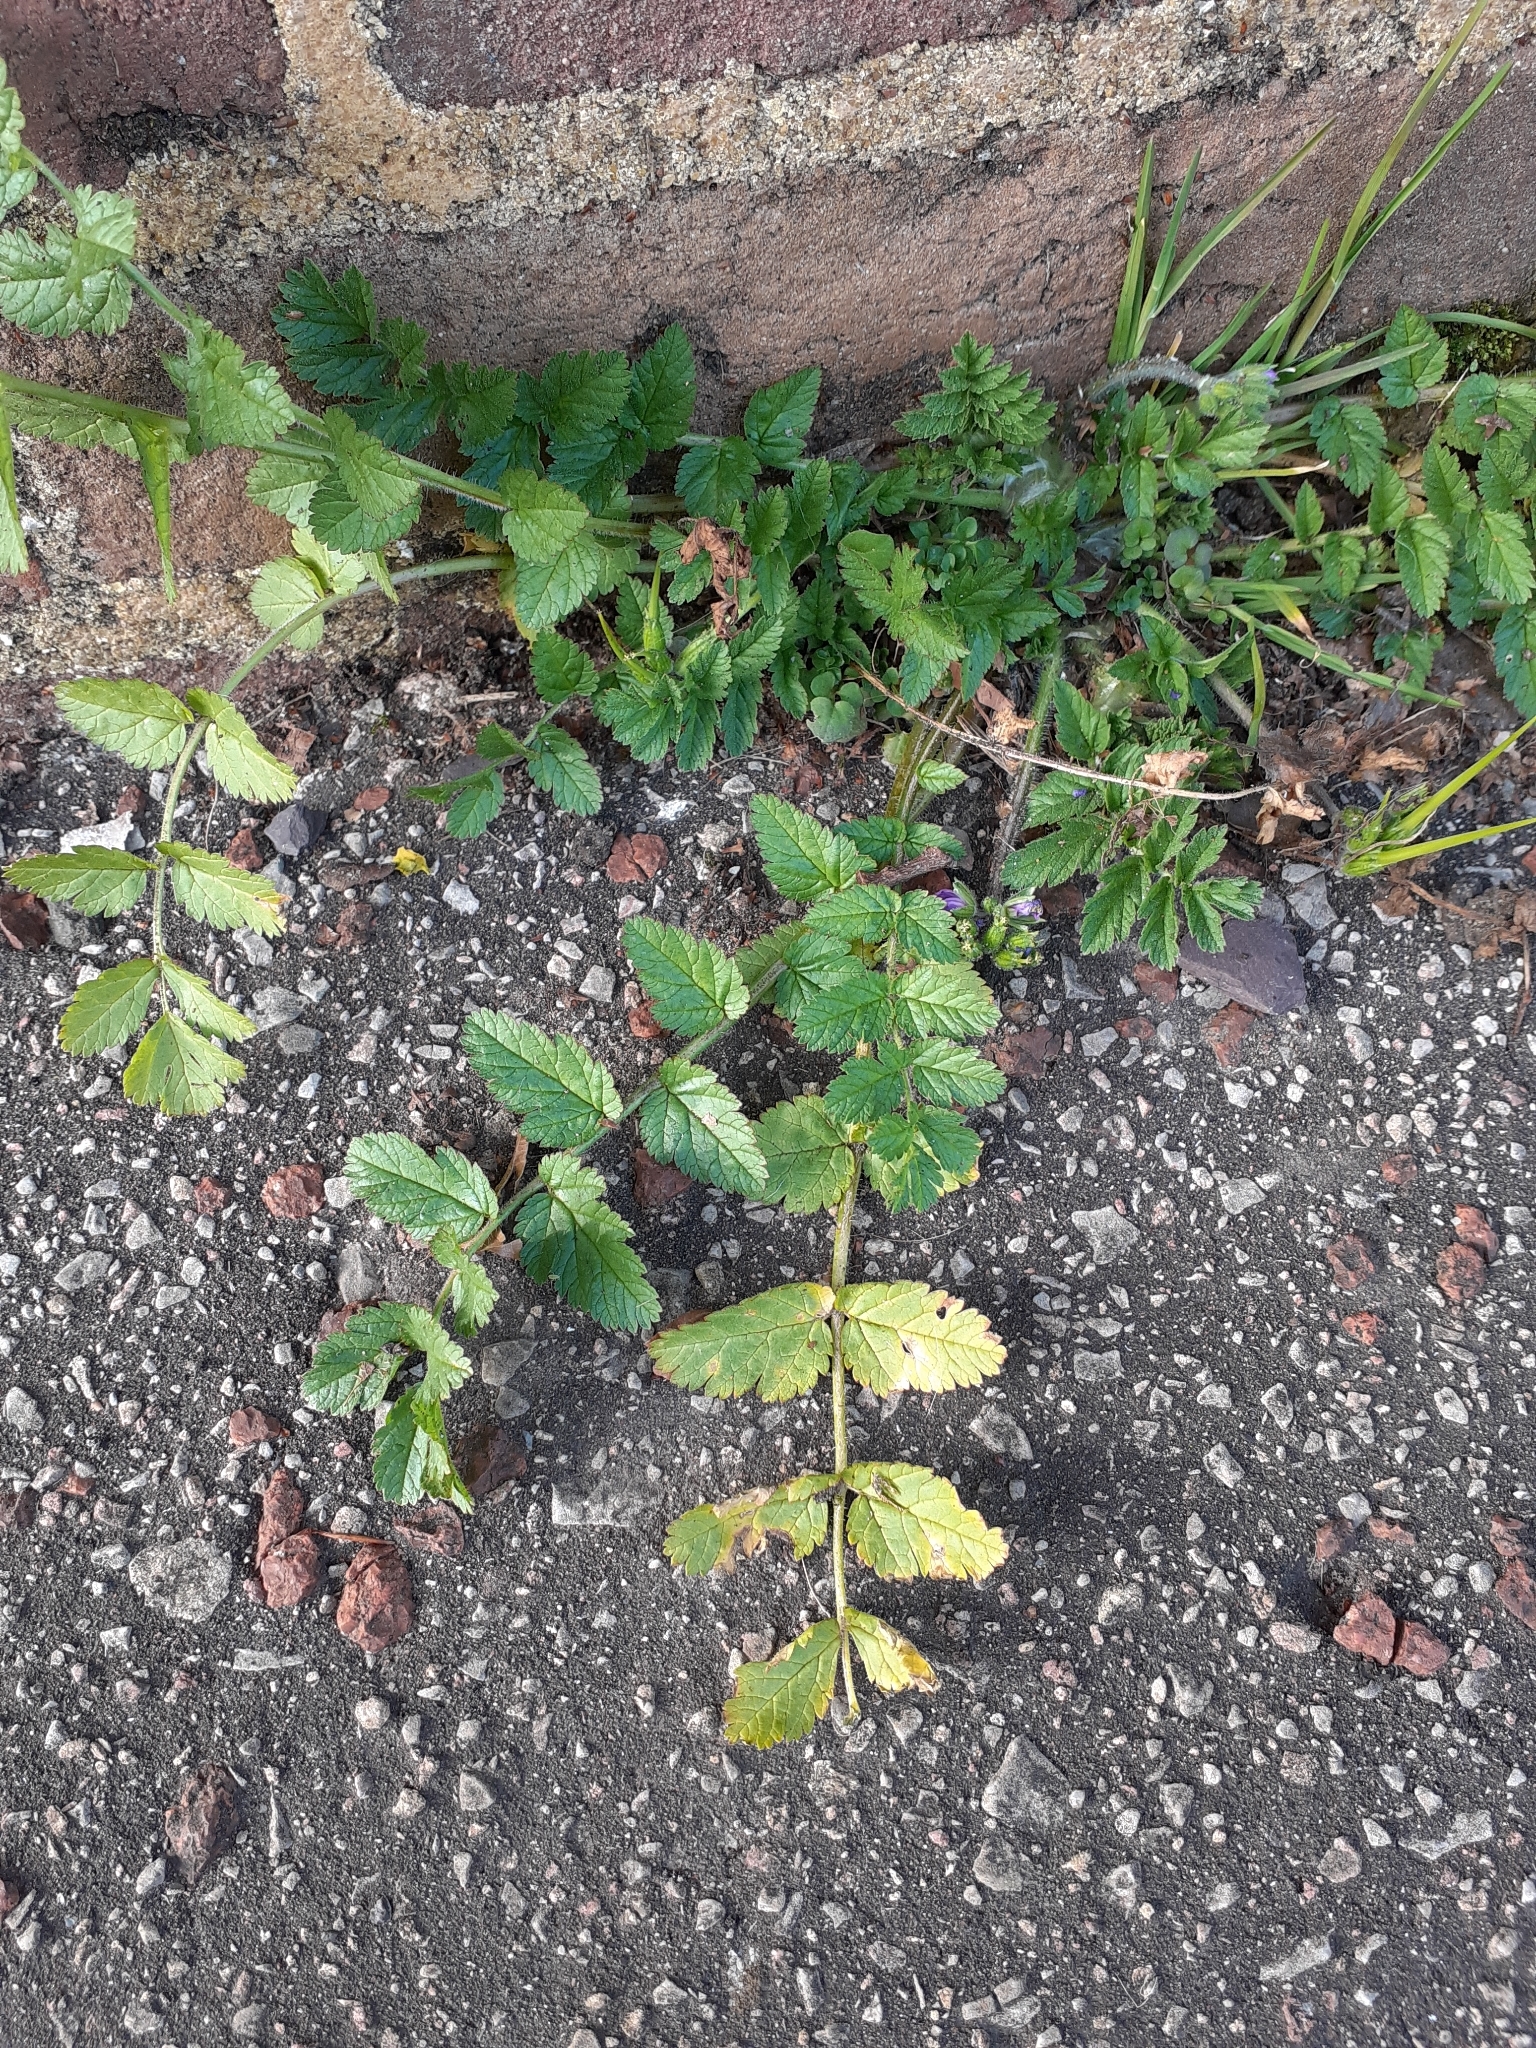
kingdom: Plantae
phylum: Tracheophyta
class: Magnoliopsida
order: Geraniales
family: Geraniaceae
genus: Erodium
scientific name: Erodium moschatum
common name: Musk stork's-bill
